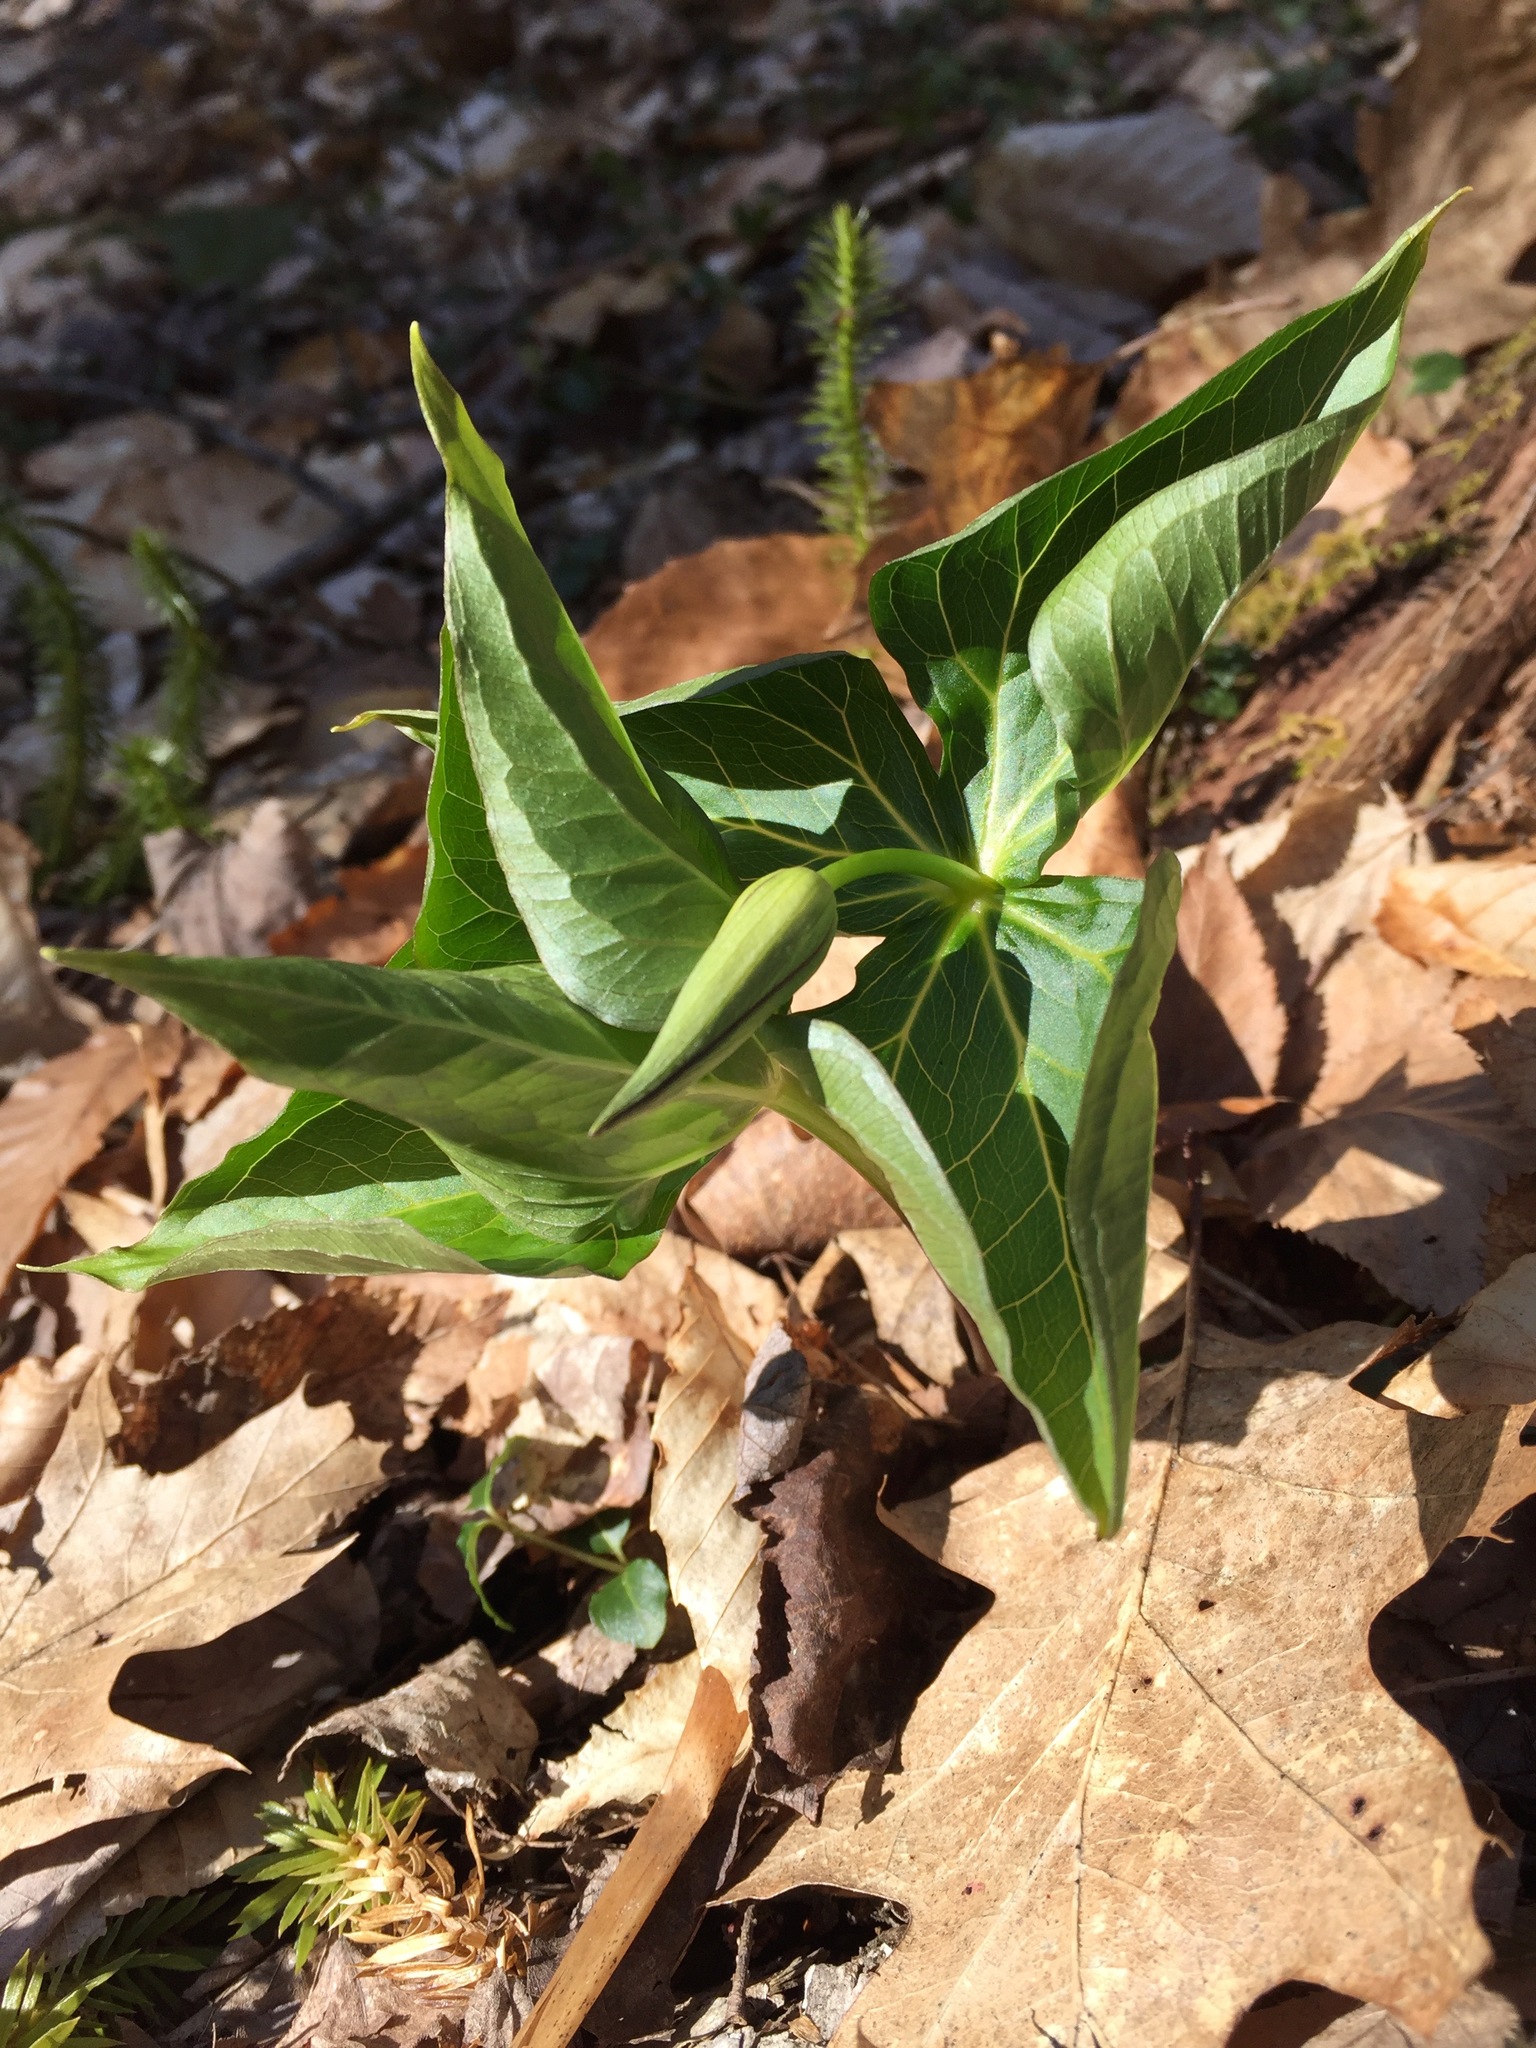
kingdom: Plantae
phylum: Tracheophyta
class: Liliopsida
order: Liliales
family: Melanthiaceae
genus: Trillium
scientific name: Trillium erectum
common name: Purple trillium
